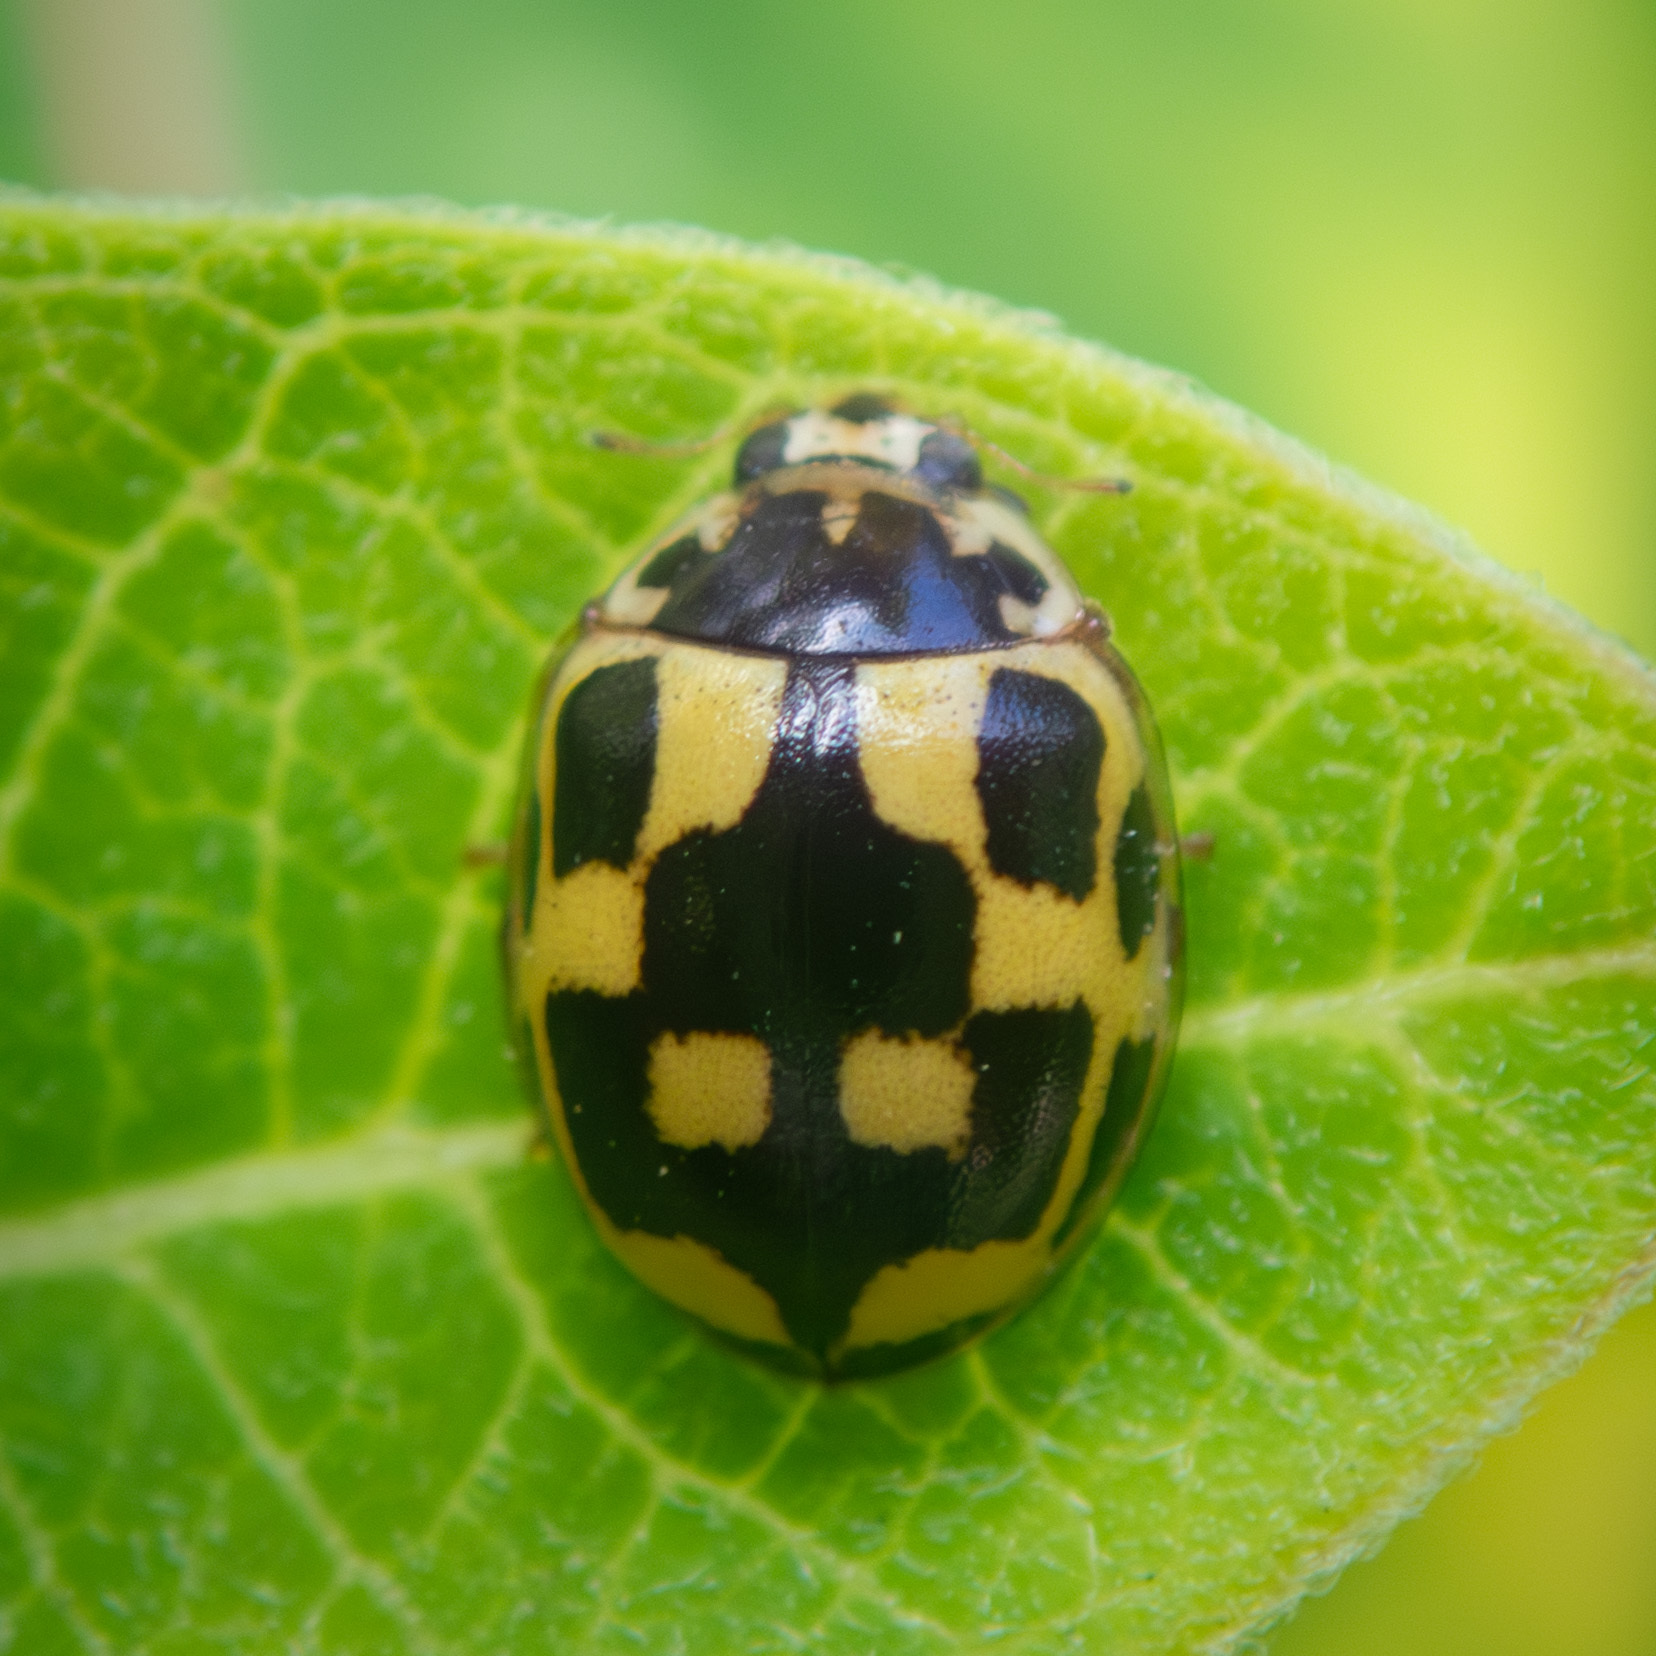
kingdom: Animalia
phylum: Arthropoda
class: Insecta
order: Coleoptera
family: Coccinellidae
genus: Propylaea
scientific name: Propylaea quatuordecimpunctata
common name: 14-spotted ladybird beetle
